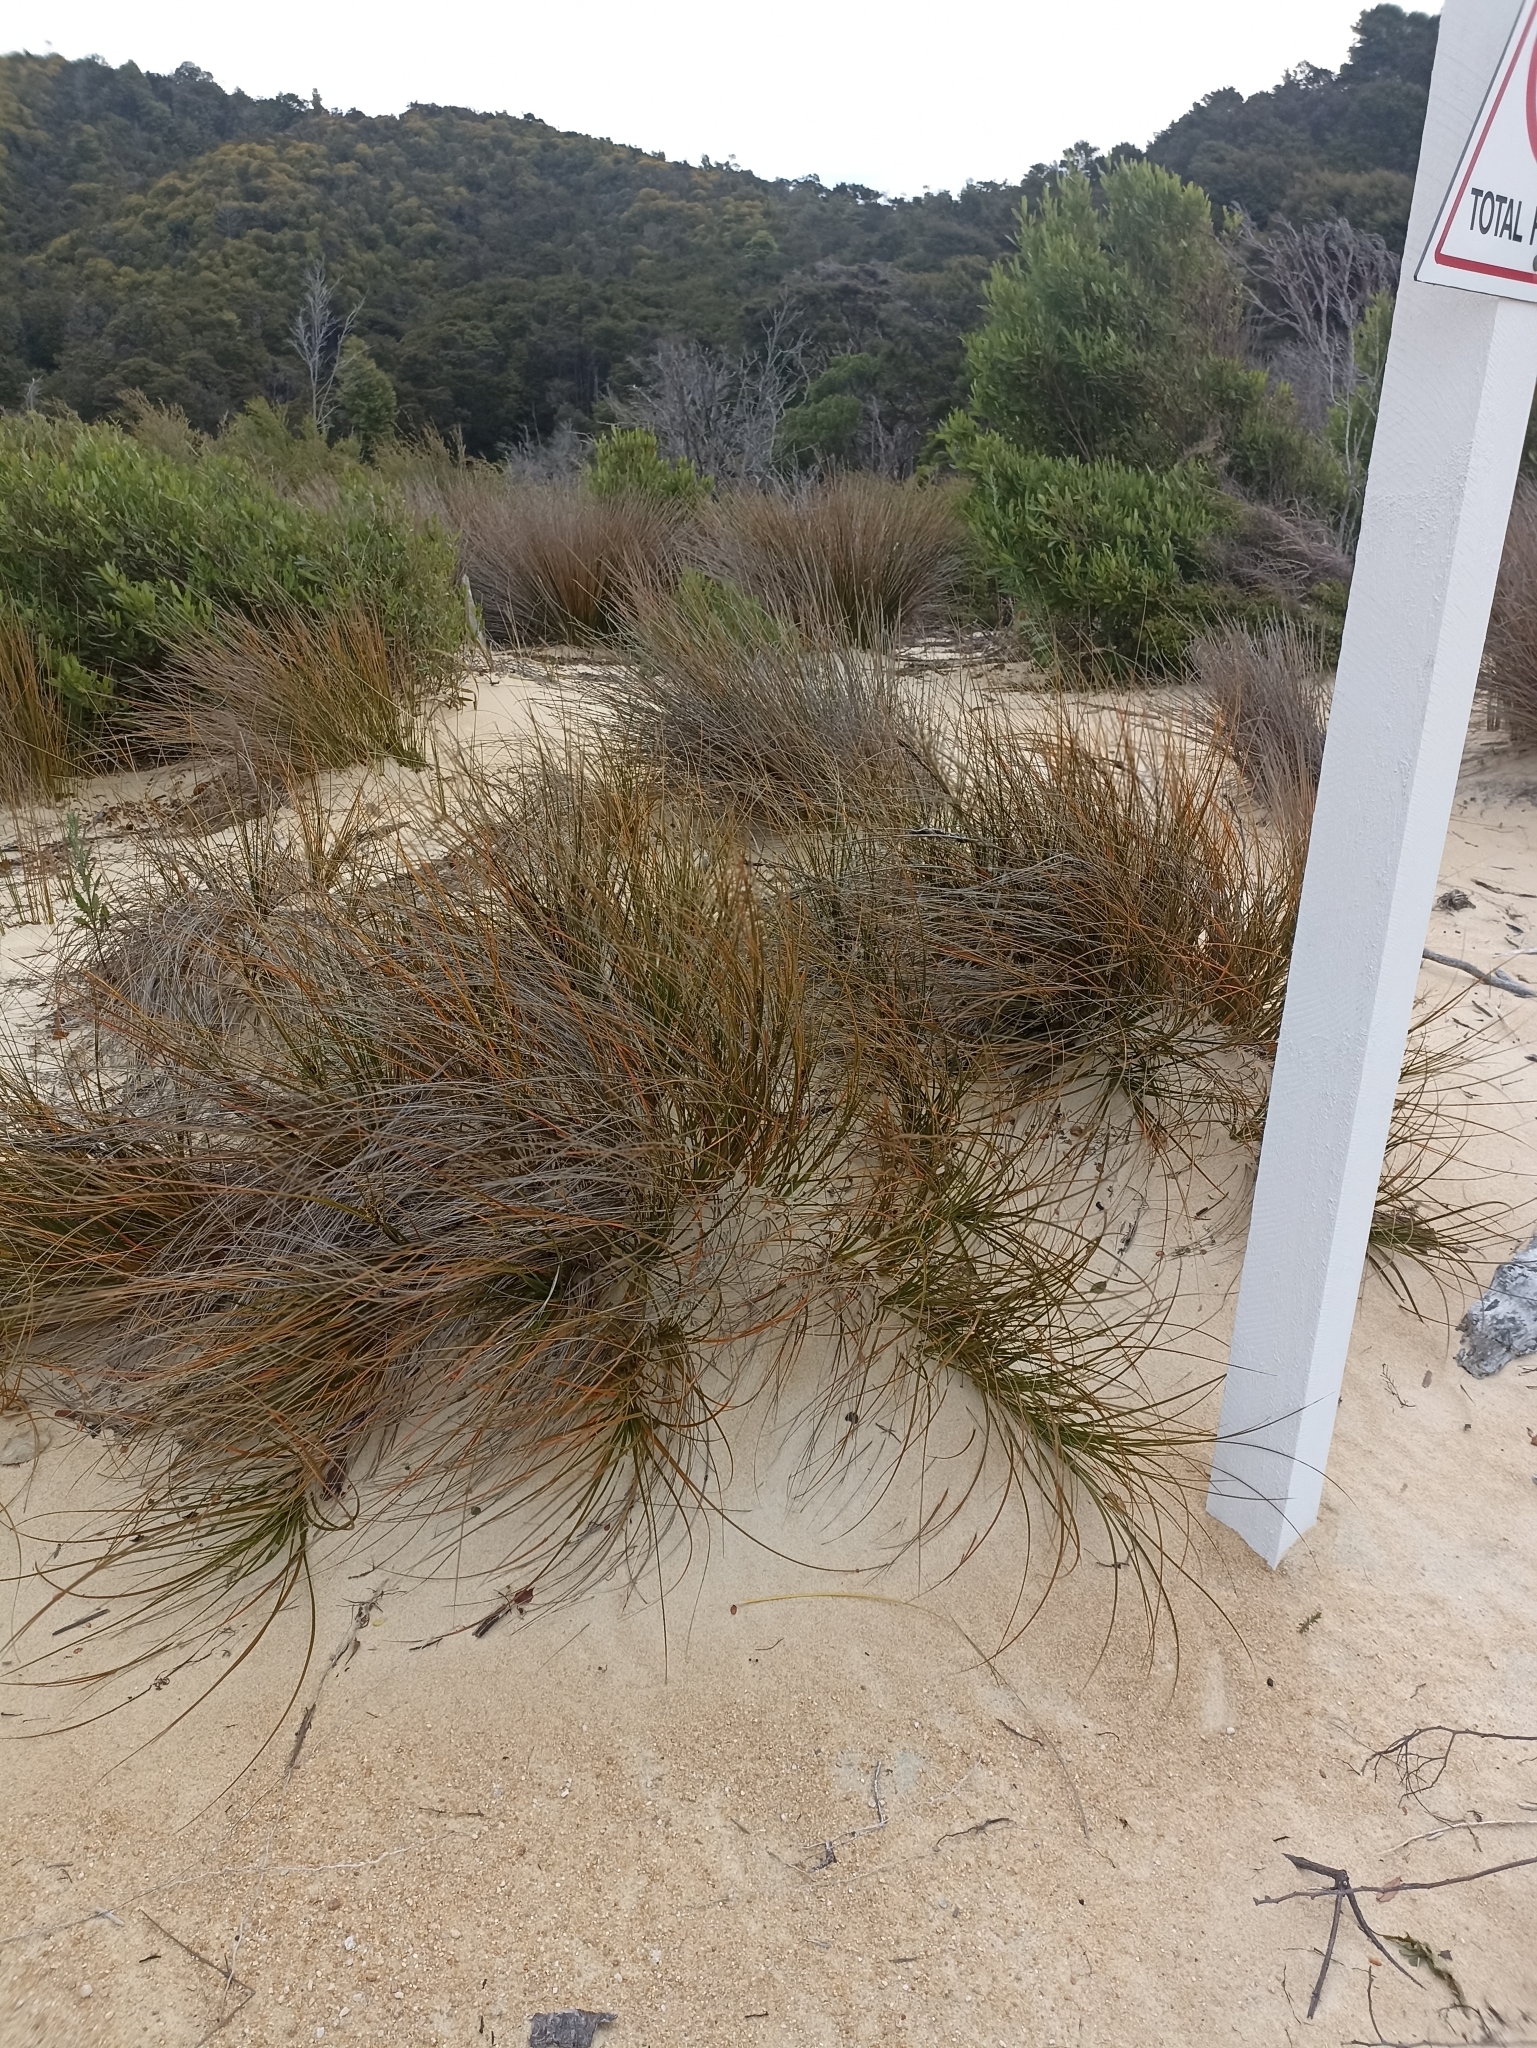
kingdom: Plantae
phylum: Tracheophyta
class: Liliopsida
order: Poales
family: Cyperaceae
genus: Ficinia
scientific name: Ficinia spiralis
